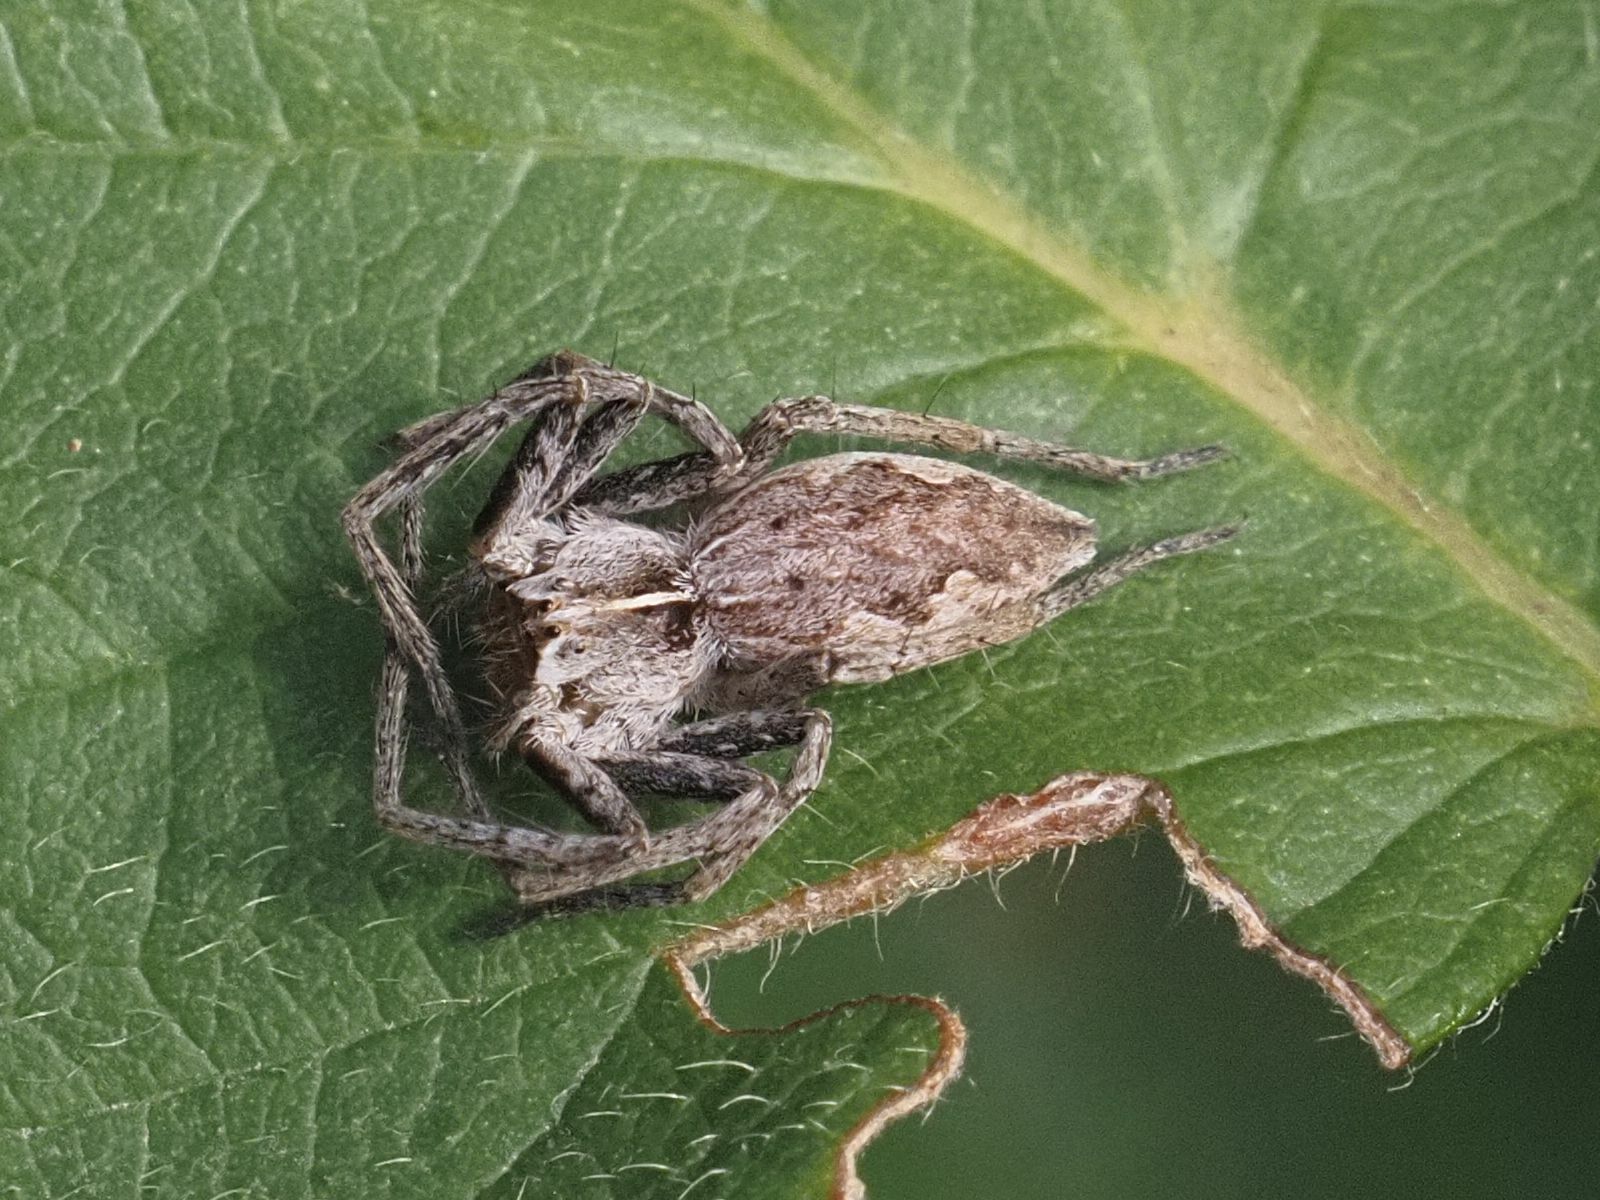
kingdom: Animalia
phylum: Arthropoda
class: Arachnida
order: Araneae
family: Pisauridae
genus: Pisaura
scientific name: Pisaura mirabilis
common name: Tent spider
